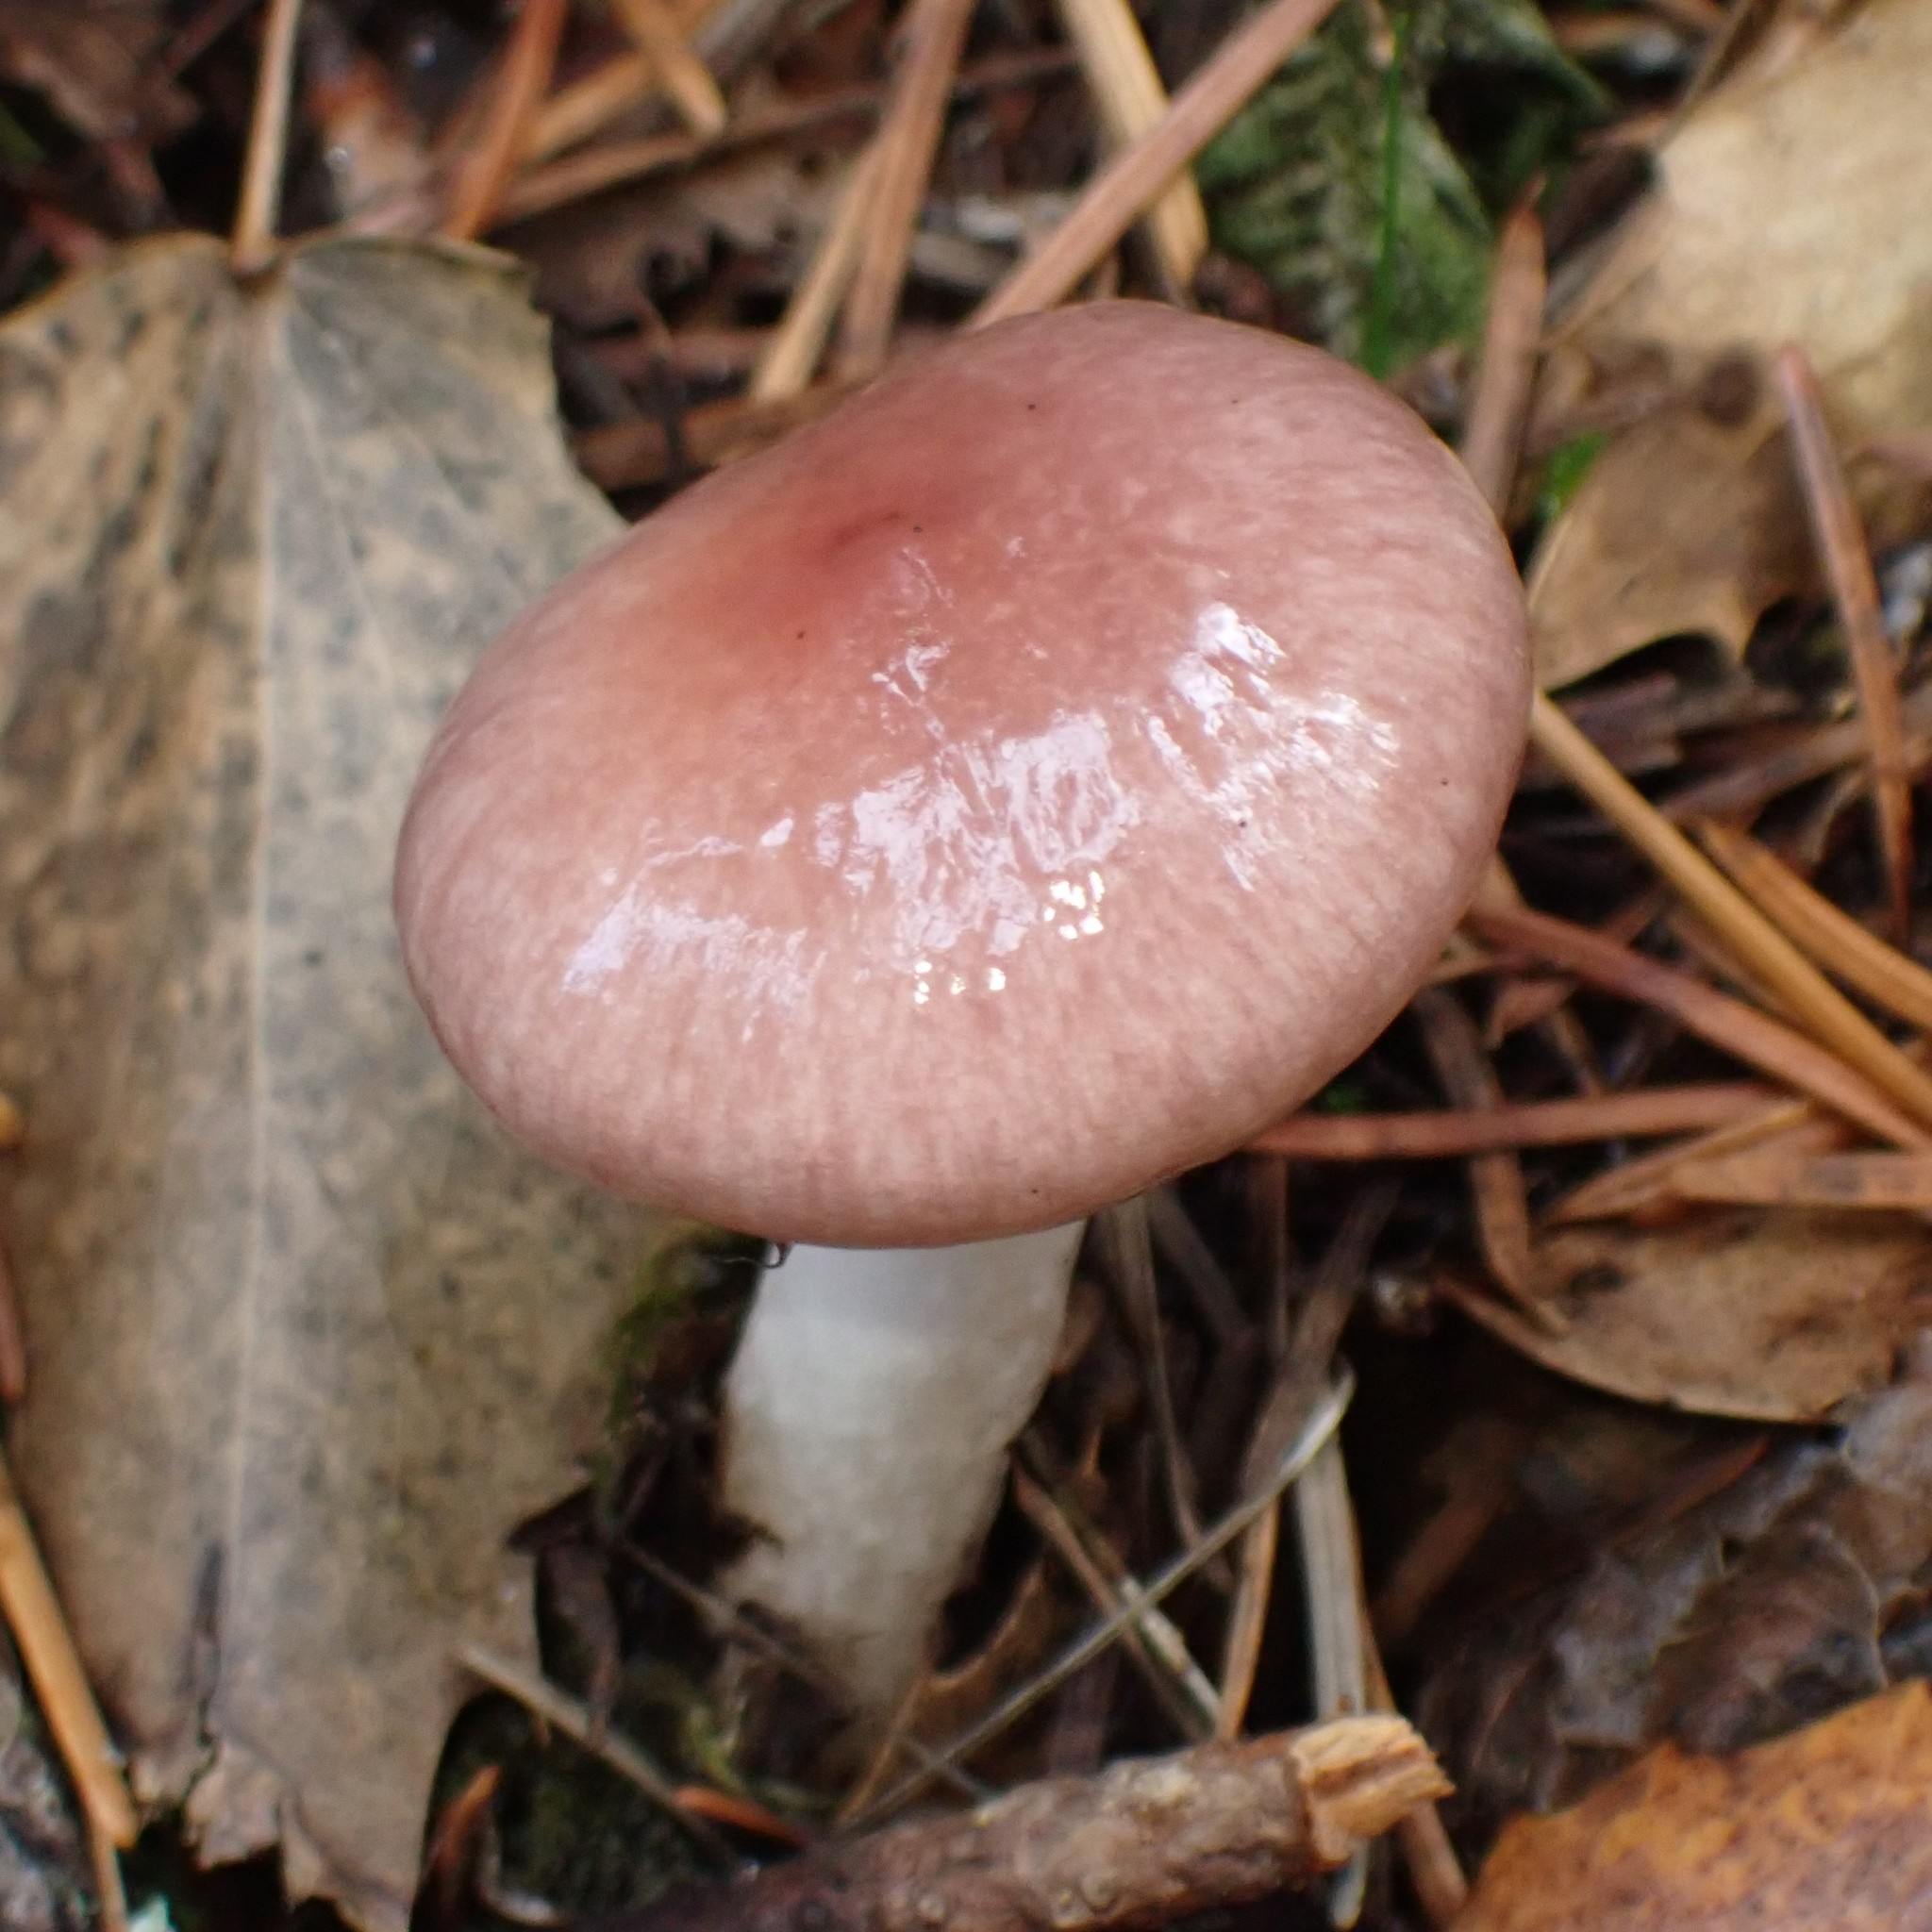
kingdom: Fungi
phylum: Basidiomycota
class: Agaricomycetes
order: Boletales
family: Gomphidiaceae
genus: Gomphidius
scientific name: Gomphidius smithii
